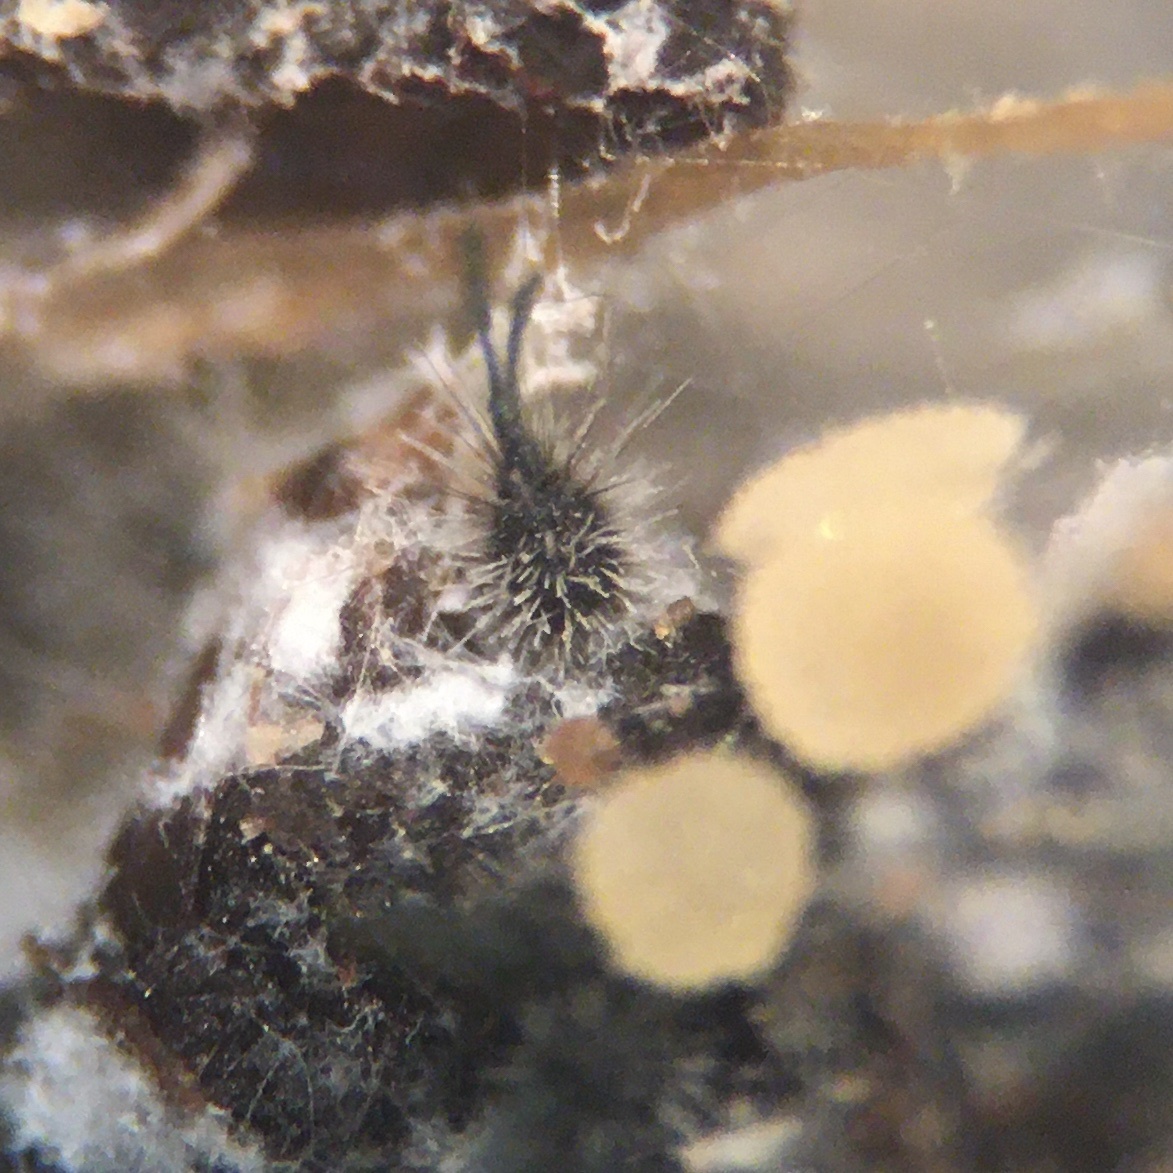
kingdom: Fungi
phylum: Ascomycota
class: Sordariomycetes
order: Sordariales
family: Chaetomiaceae
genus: Chaetomium
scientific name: Chaetomium trigonosporum
